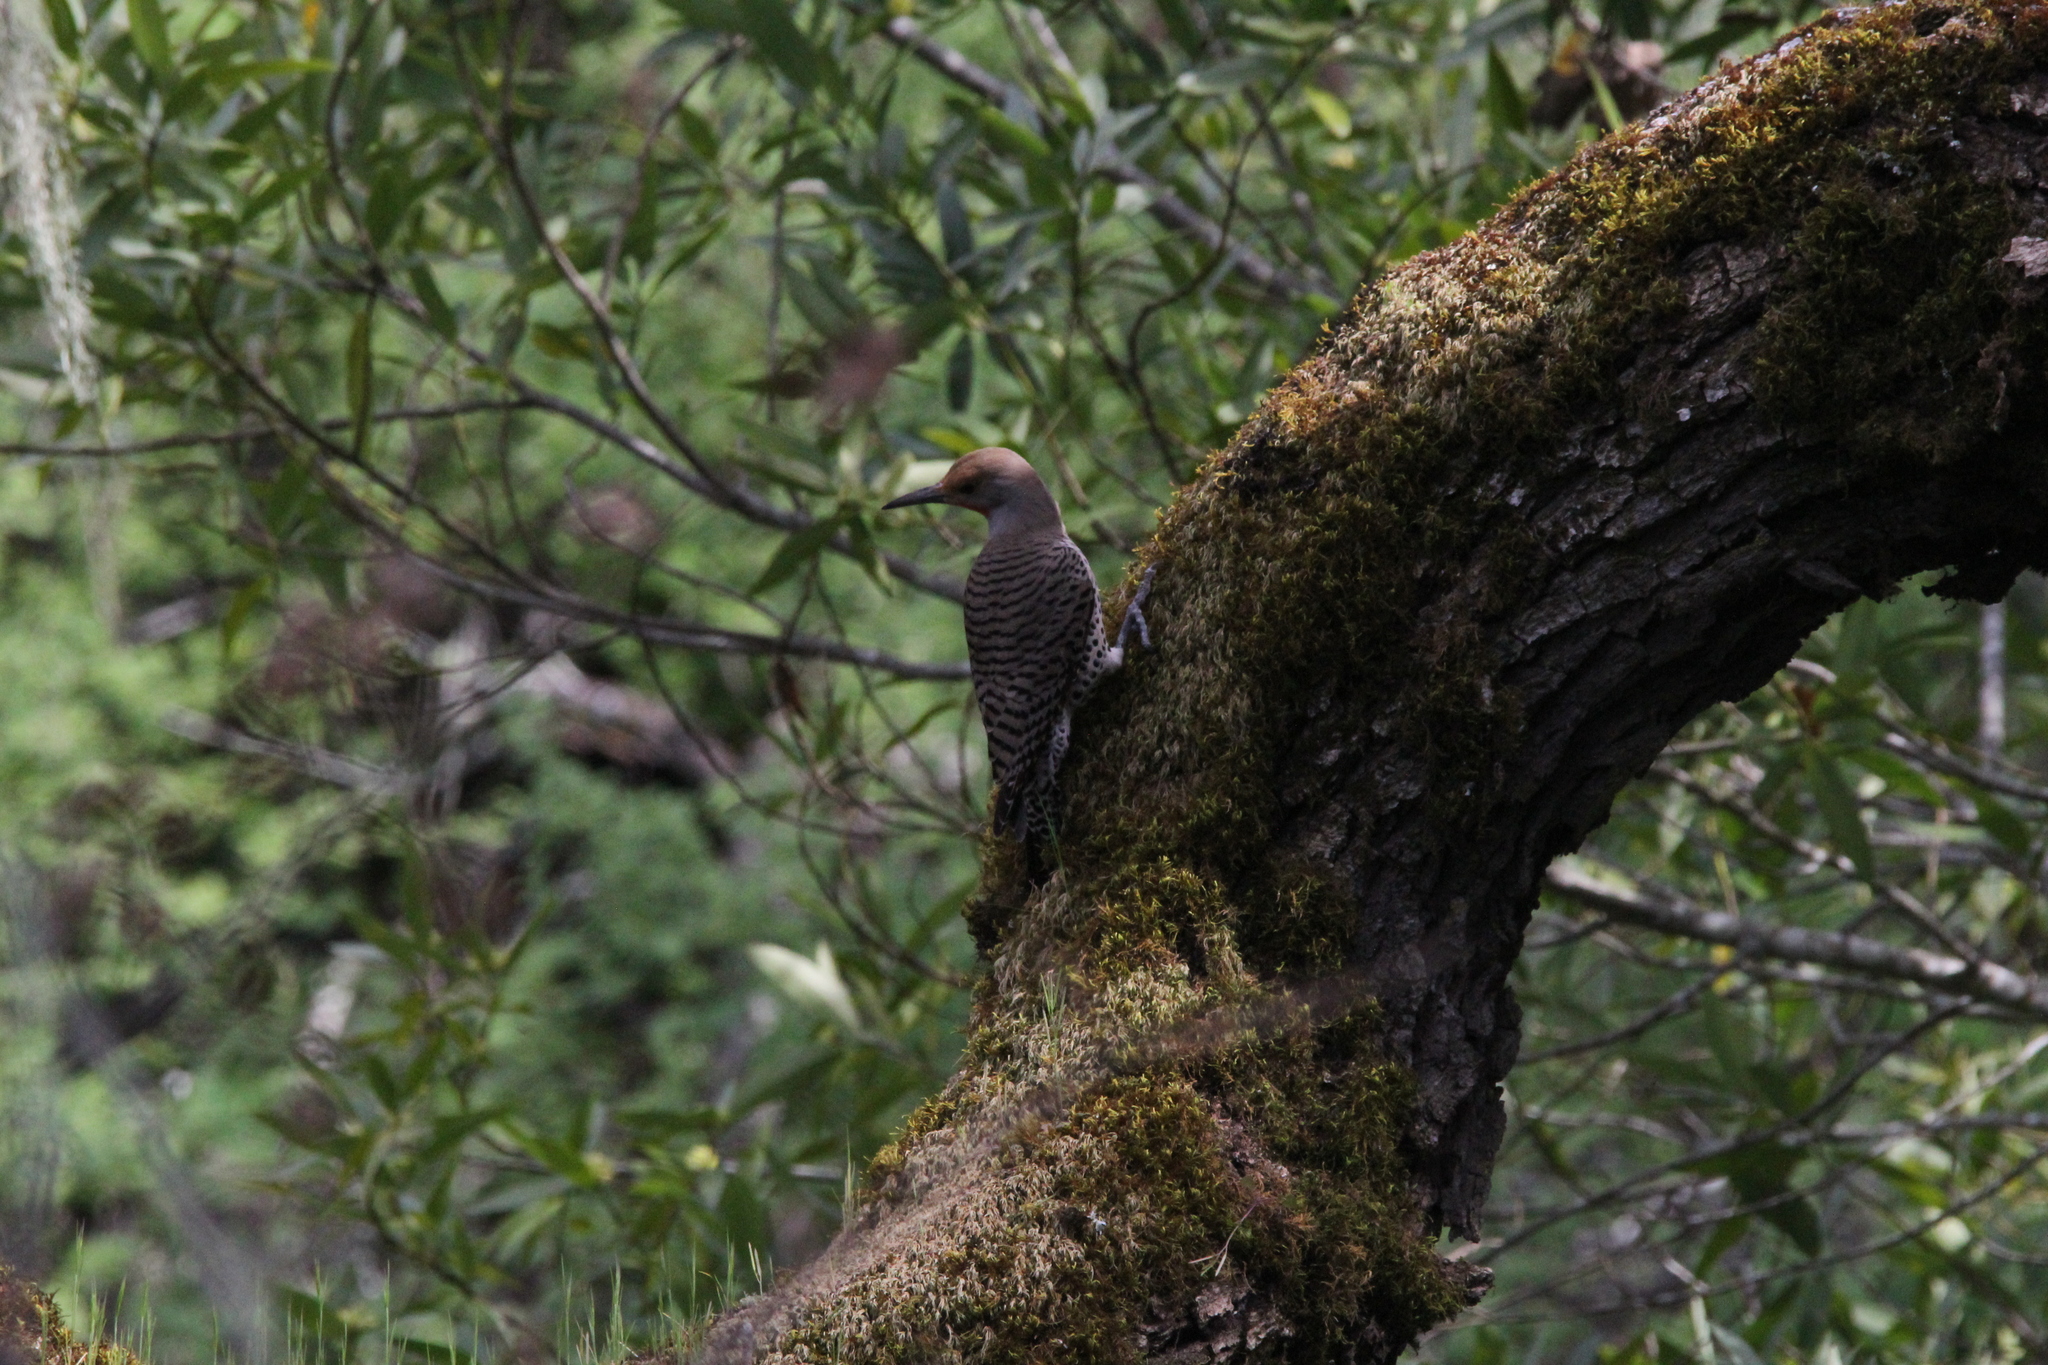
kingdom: Animalia
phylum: Chordata
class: Aves
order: Piciformes
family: Picidae
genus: Colaptes
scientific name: Colaptes auratus
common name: Northern flicker
